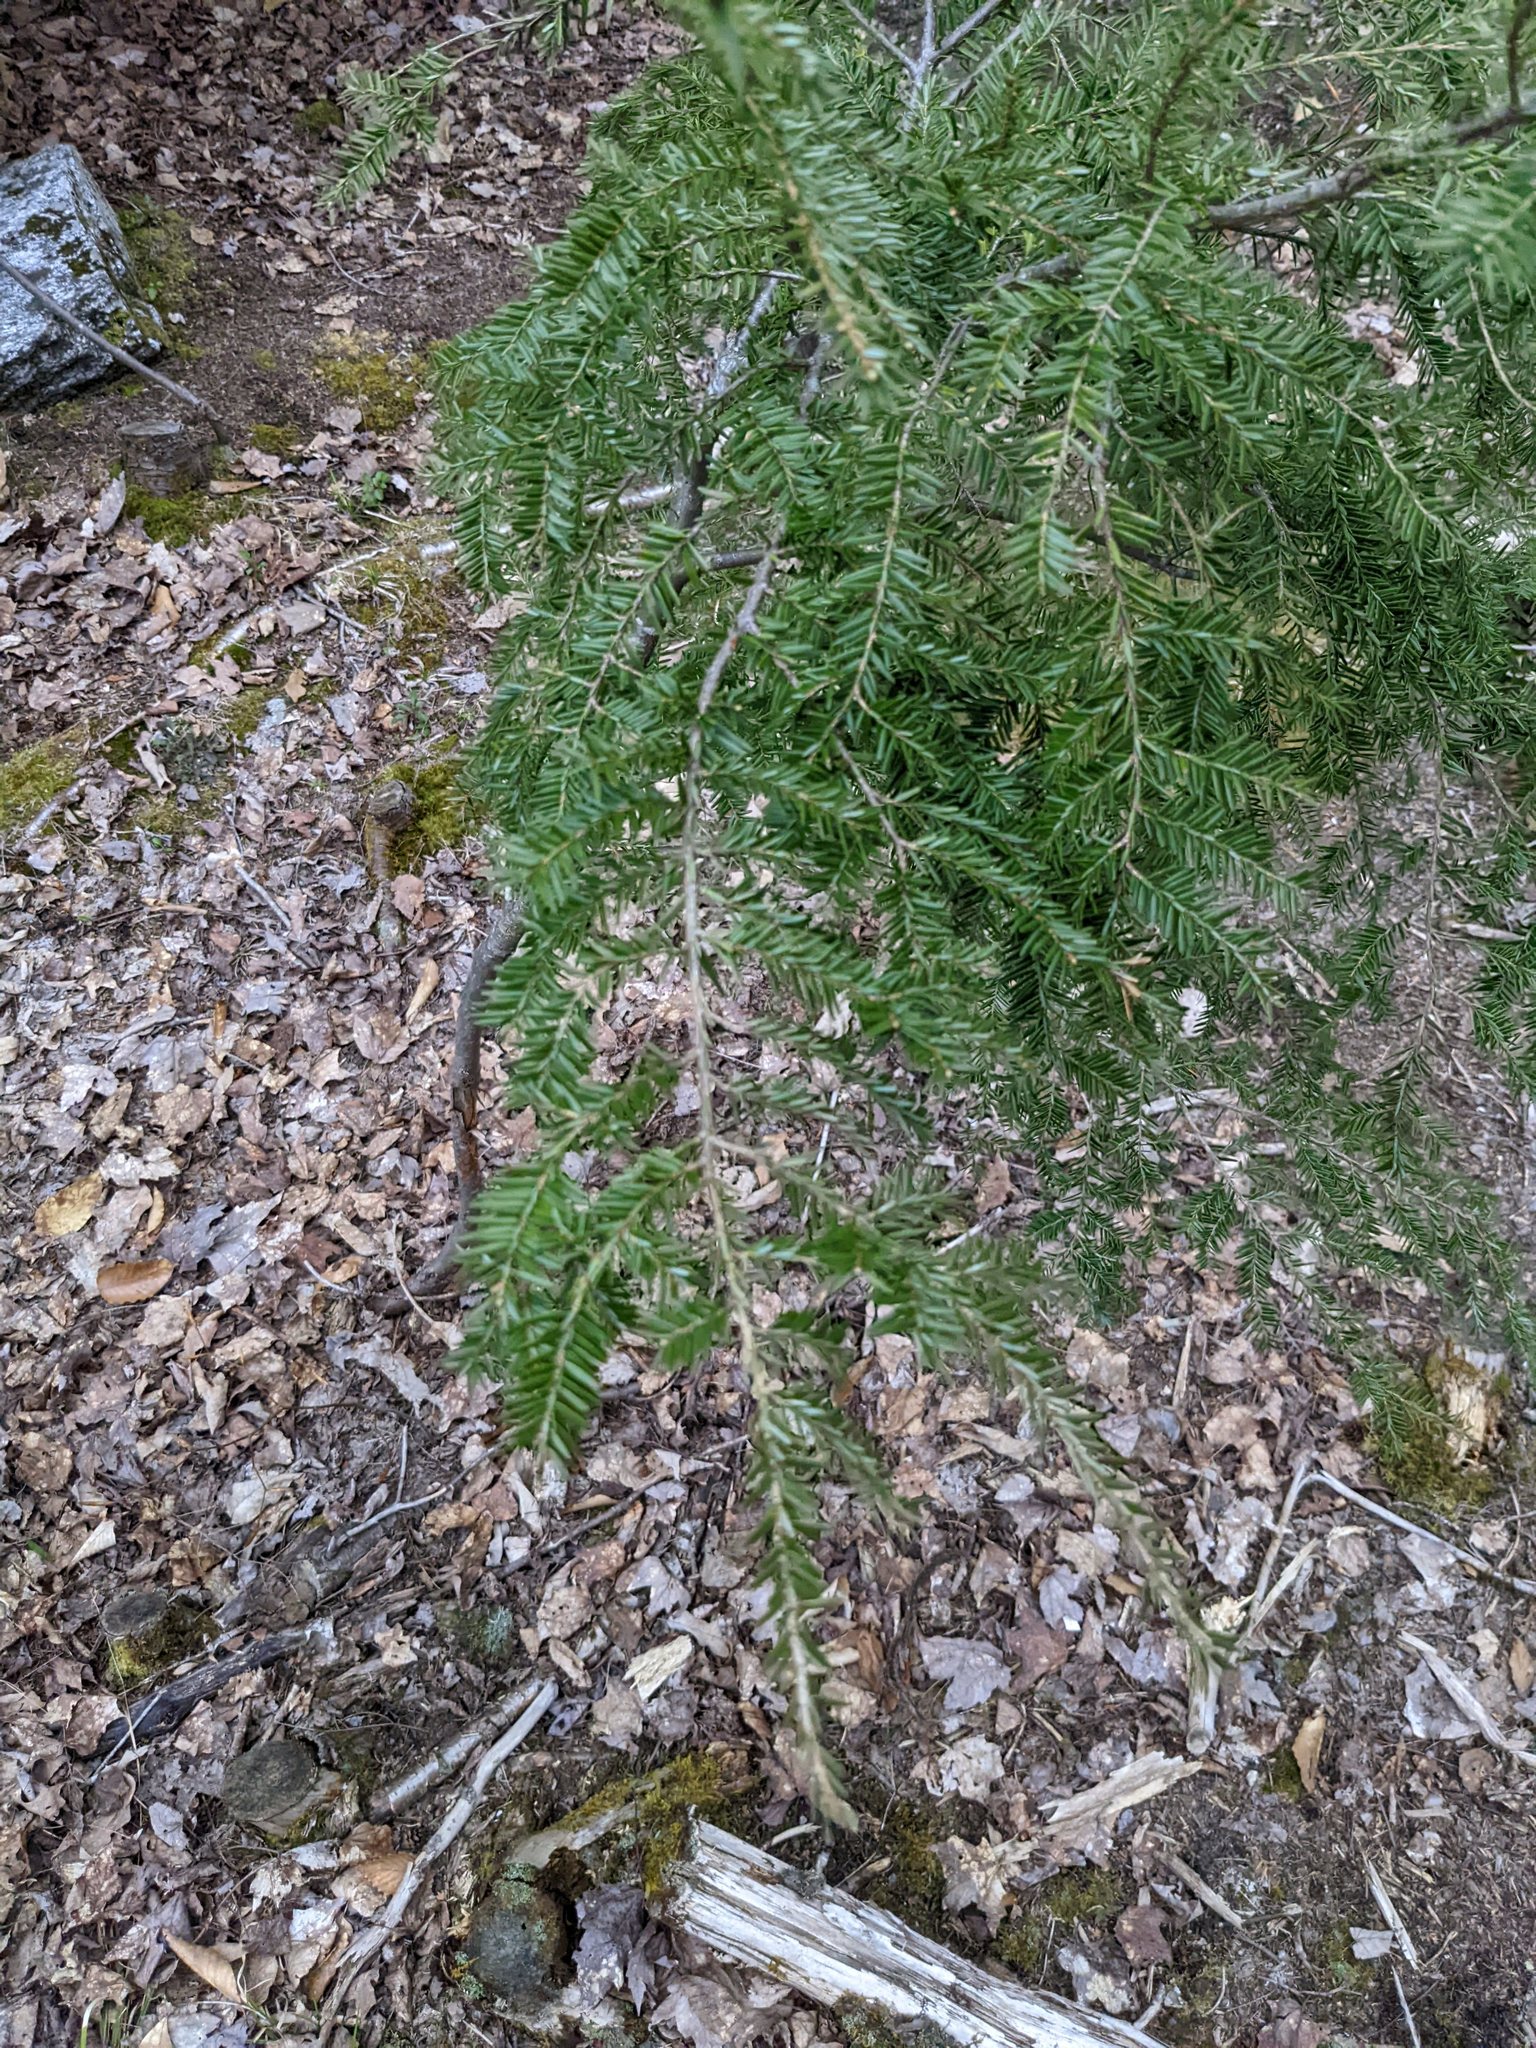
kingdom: Plantae
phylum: Tracheophyta
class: Pinopsida
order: Pinales
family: Pinaceae
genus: Tsuga
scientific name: Tsuga canadensis
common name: Eastern hemlock
